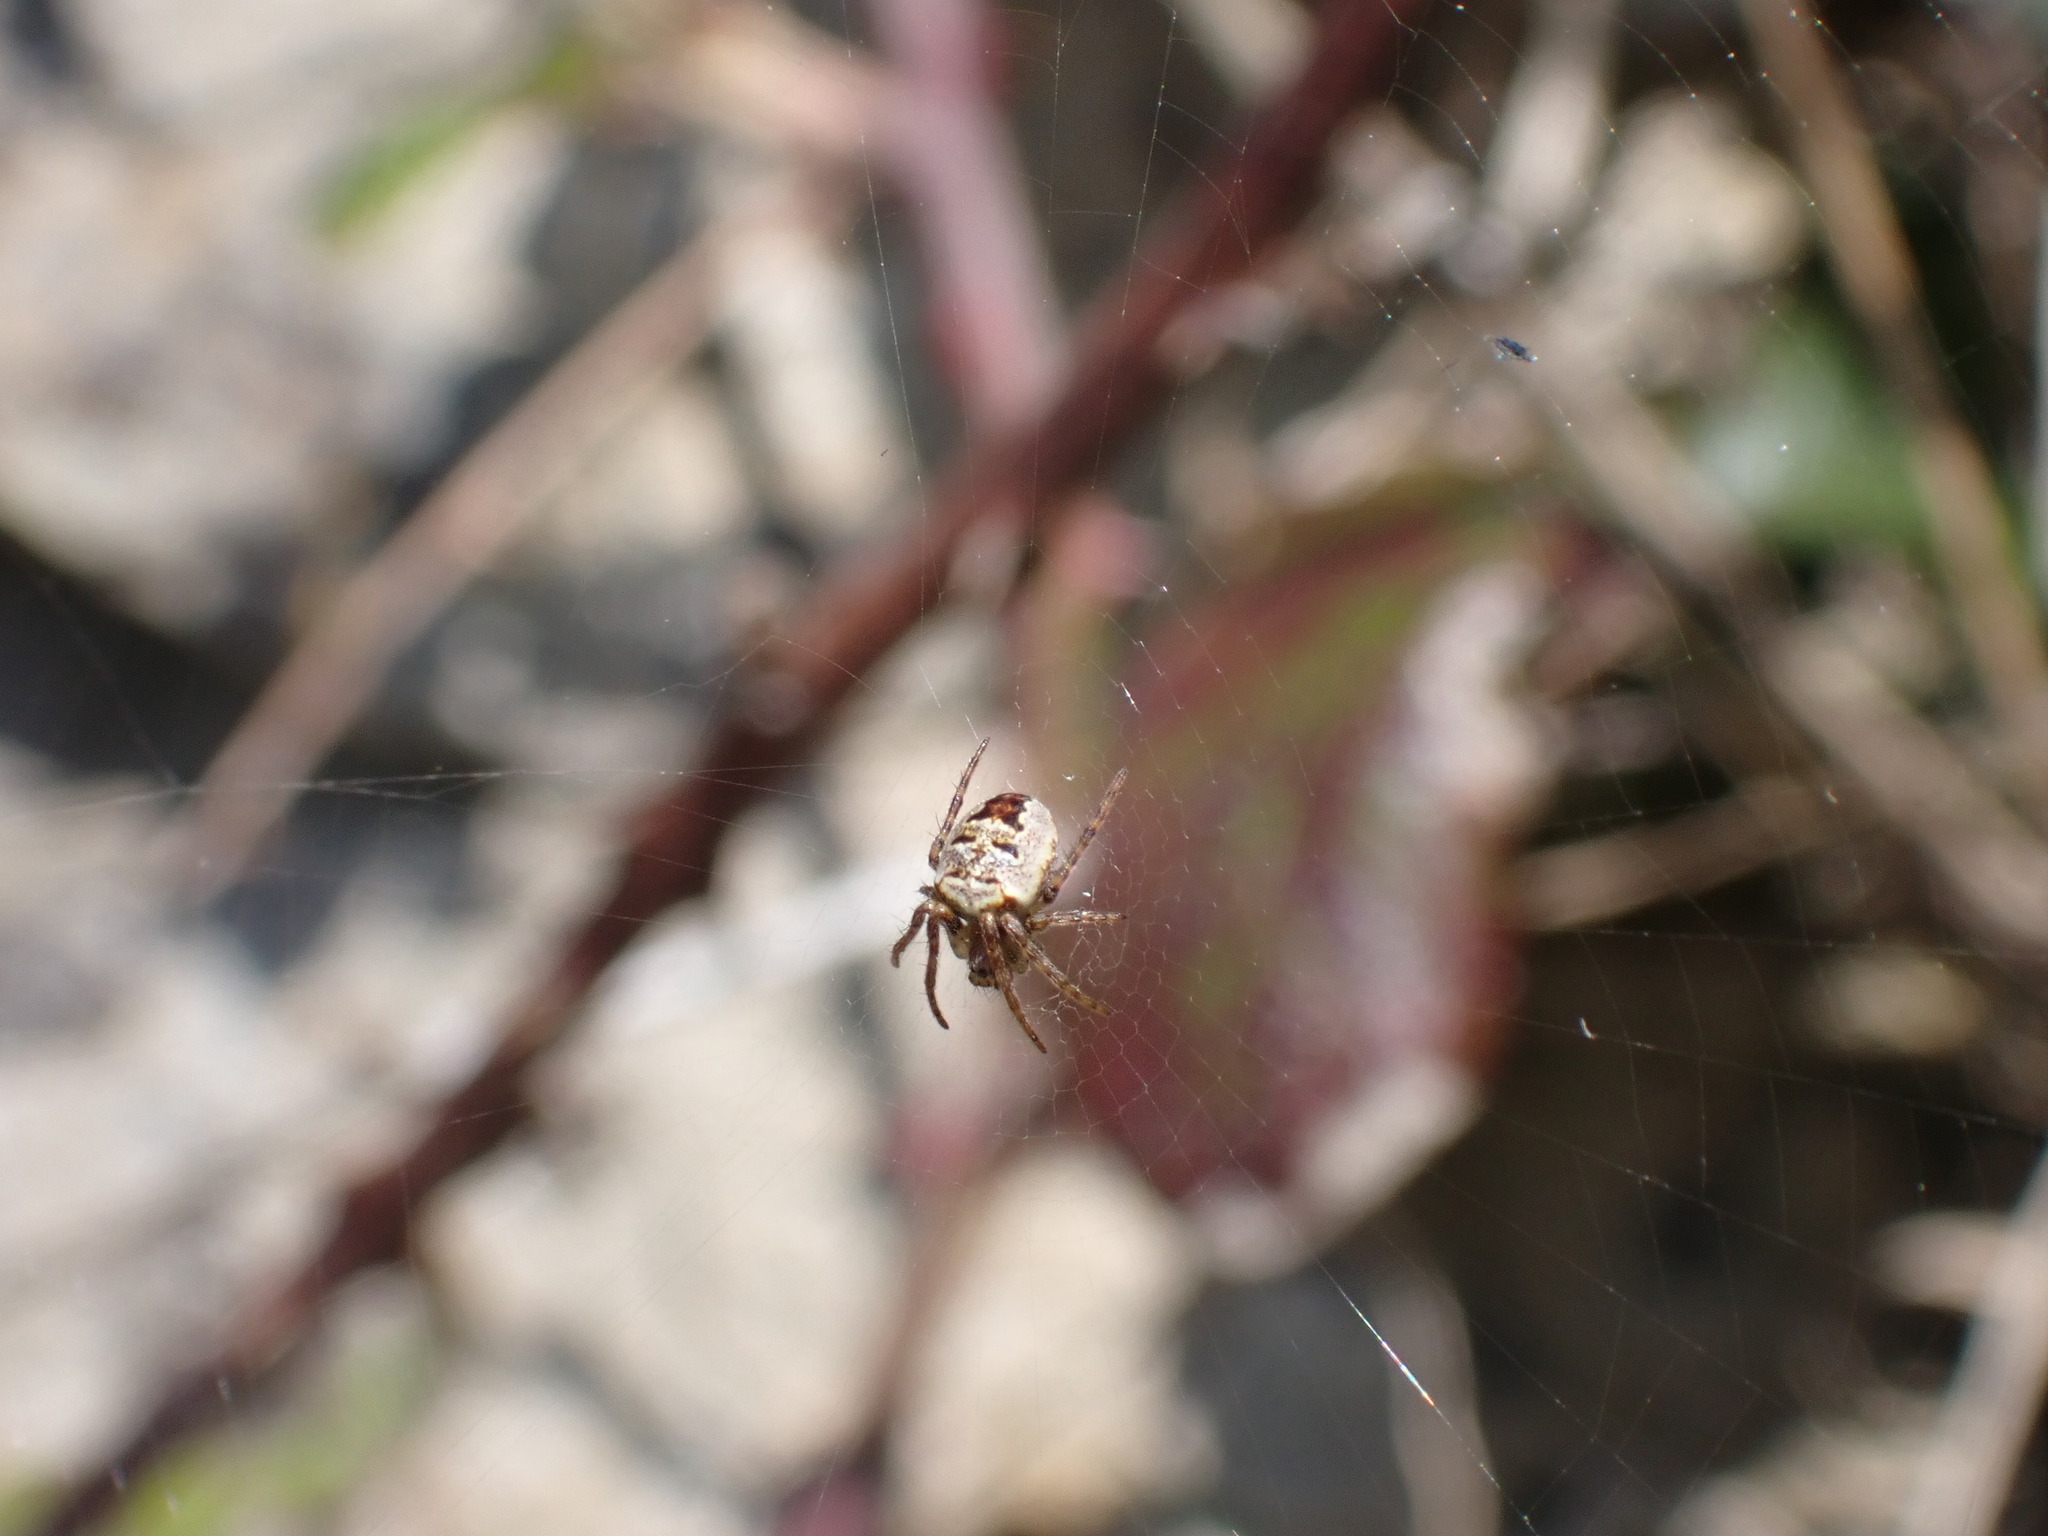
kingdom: Animalia
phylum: Arthropoda
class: Arachnida
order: Araneae
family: Araneidae
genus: Zilla
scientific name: Zilla diodia
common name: Zilla diodia
